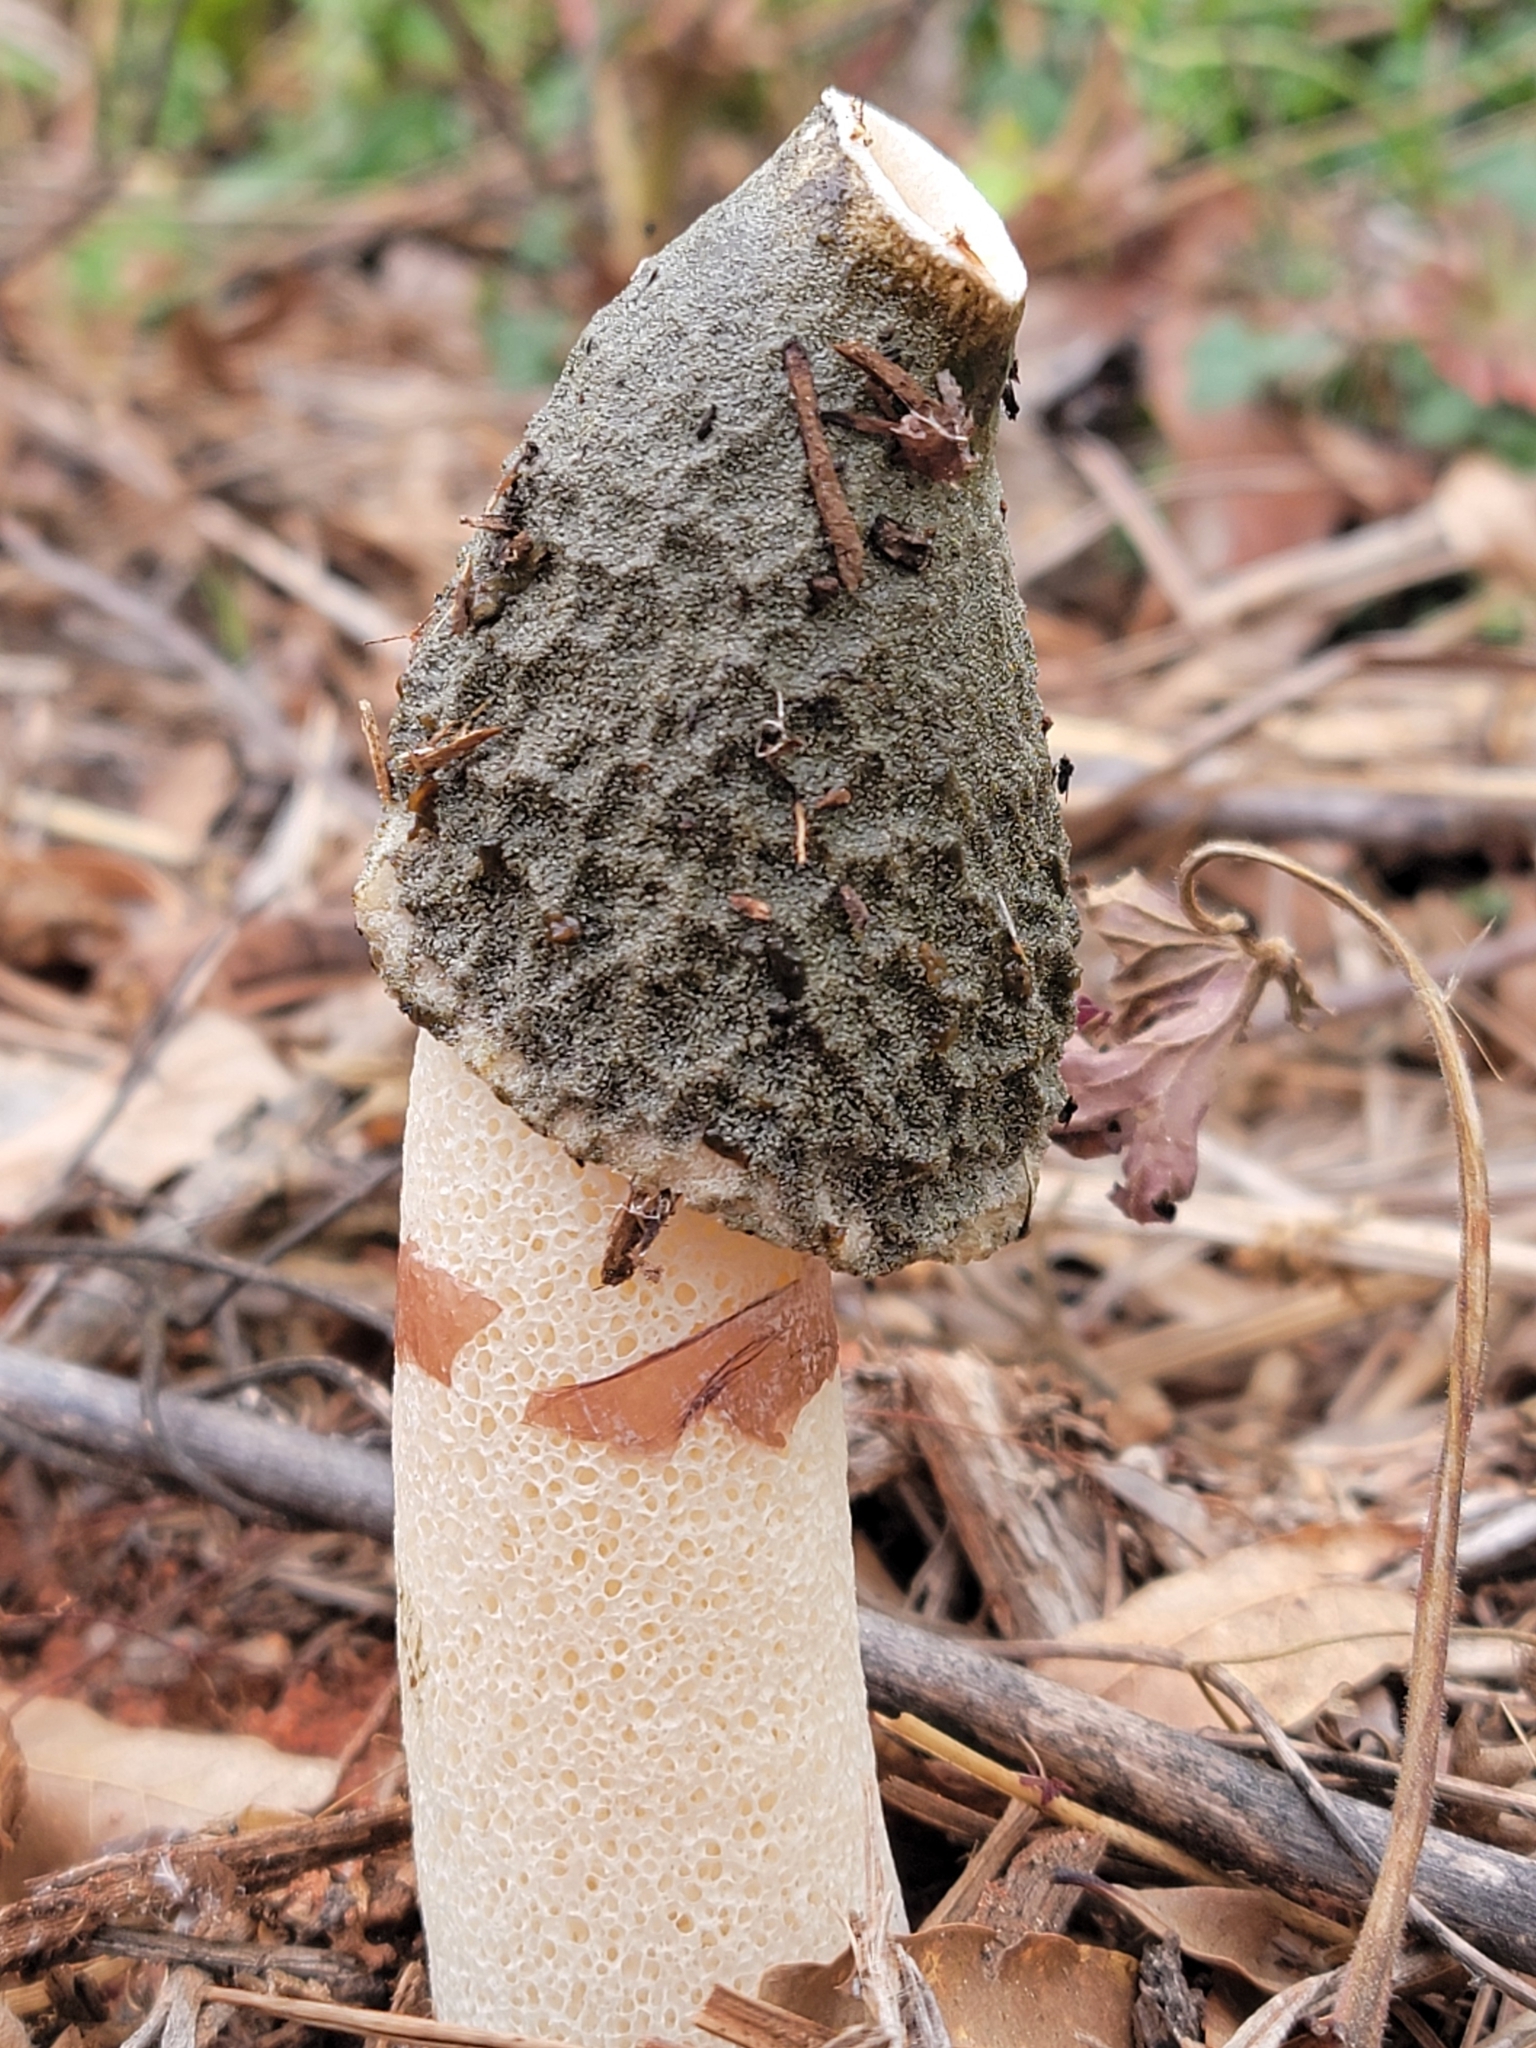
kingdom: Fungi
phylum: Basidiomycota
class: Agaricomycetes
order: Phallales
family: Phallaceae
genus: Phallus
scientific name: Phallus ravenelii
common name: Ravenel's stinkhorn
